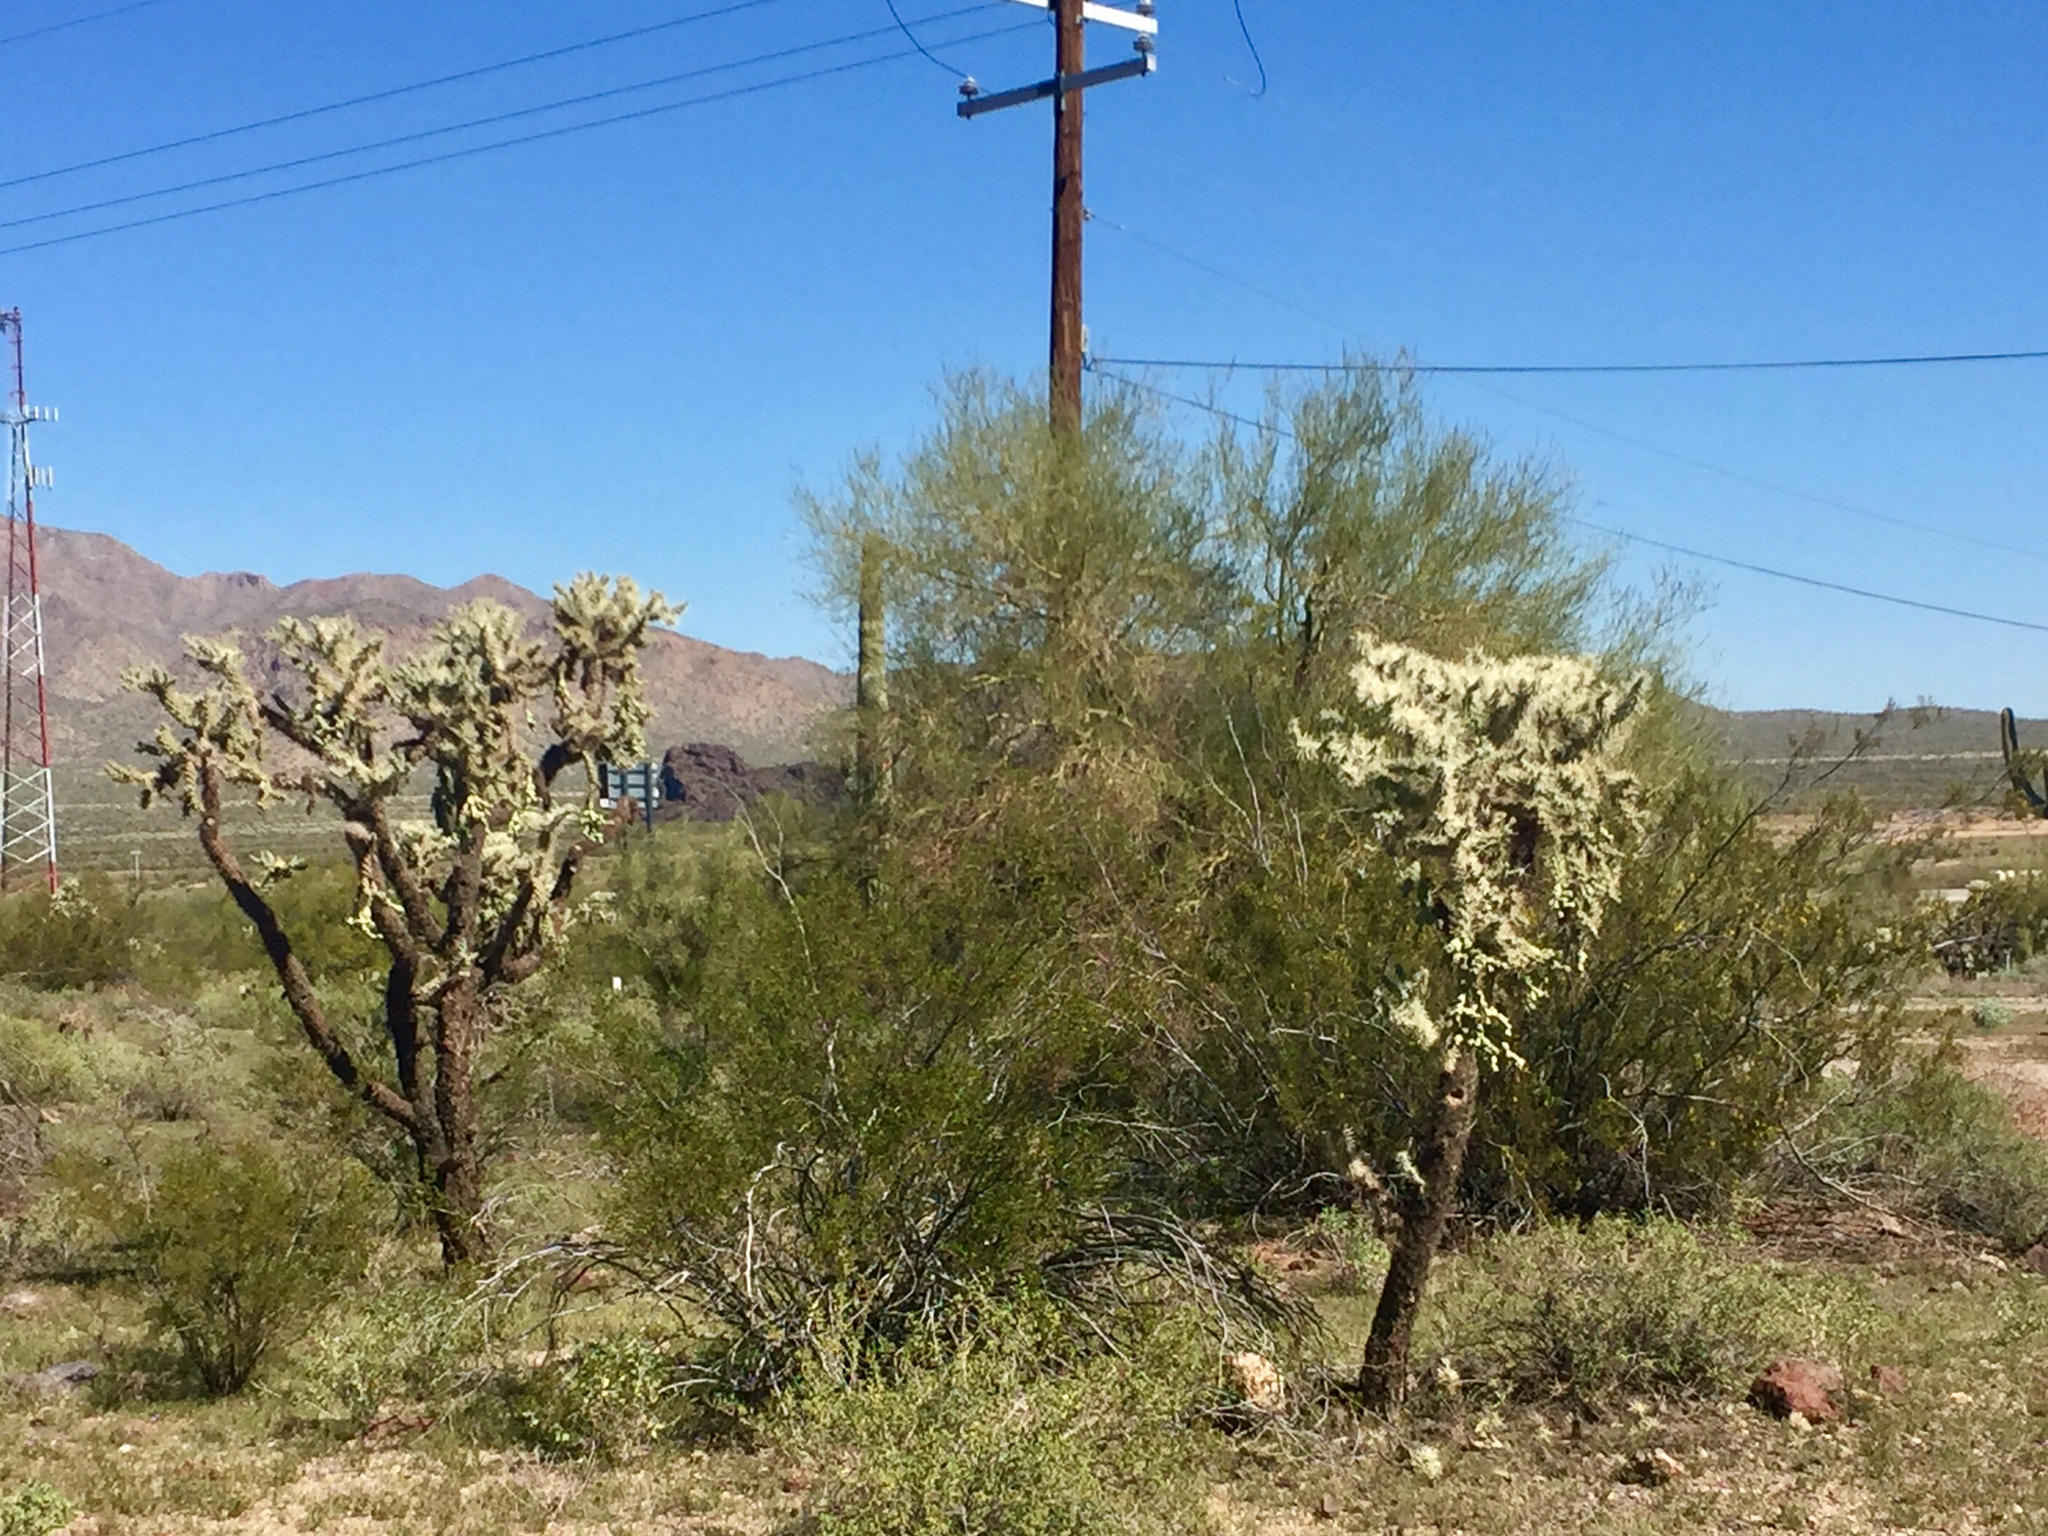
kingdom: Plantae
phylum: Tracheophyta
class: Magnoliopsida
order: Fabales
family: Fabaceae
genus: Parkinsonia
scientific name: Parkinsonia microphylla
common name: Yellow paloverde
